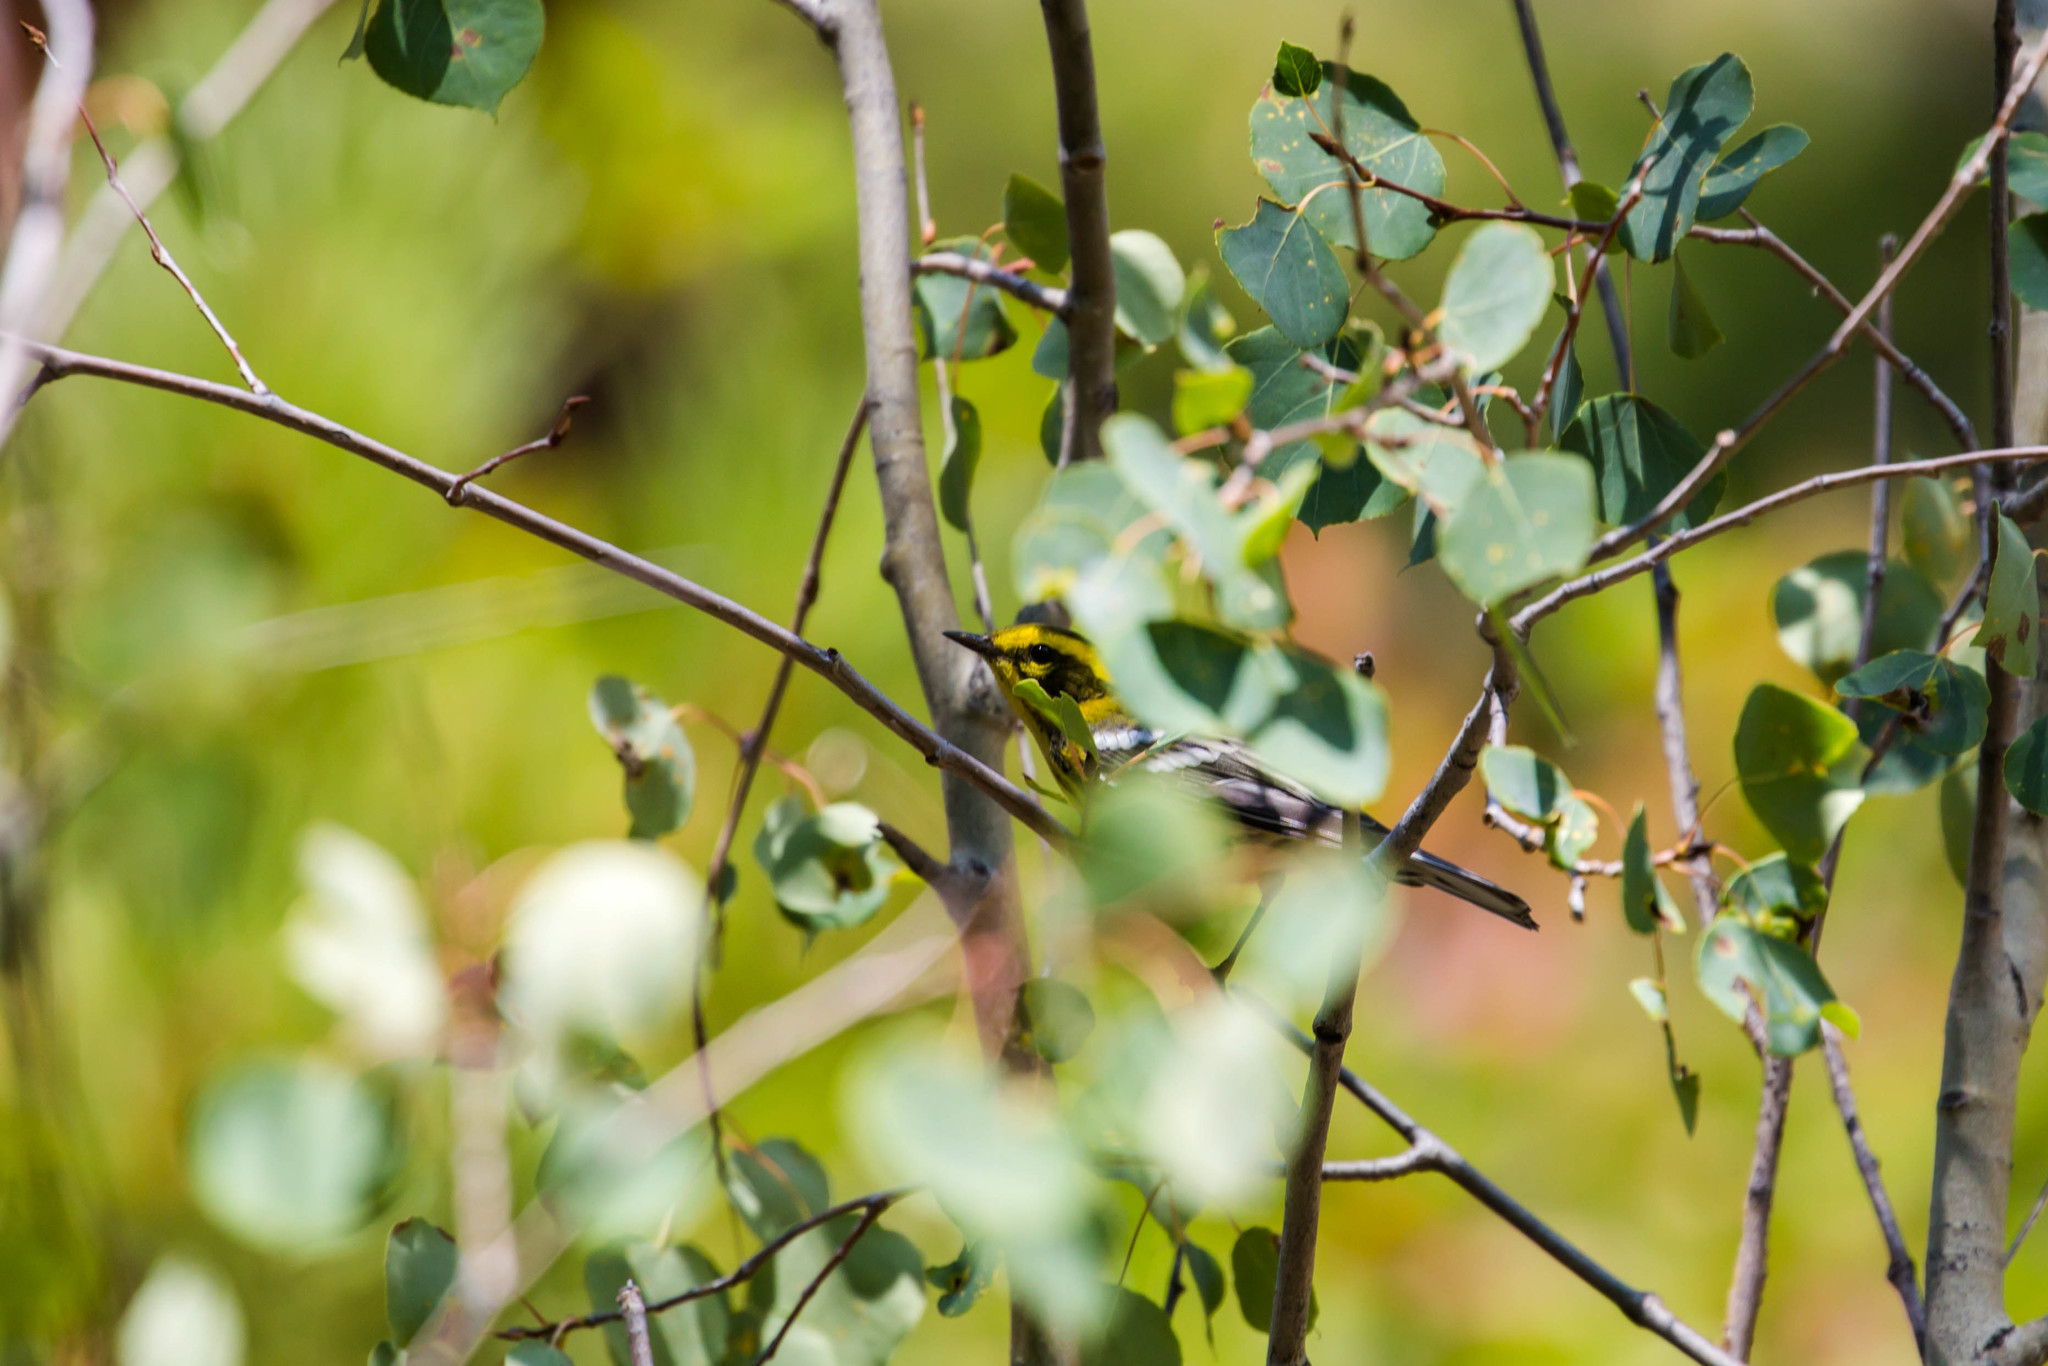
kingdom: Animalia
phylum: Chordata
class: Aves
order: Passeriformes
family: Parulidae
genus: Setophaga
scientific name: Setophaga townsendi
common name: Townsend's warbler
